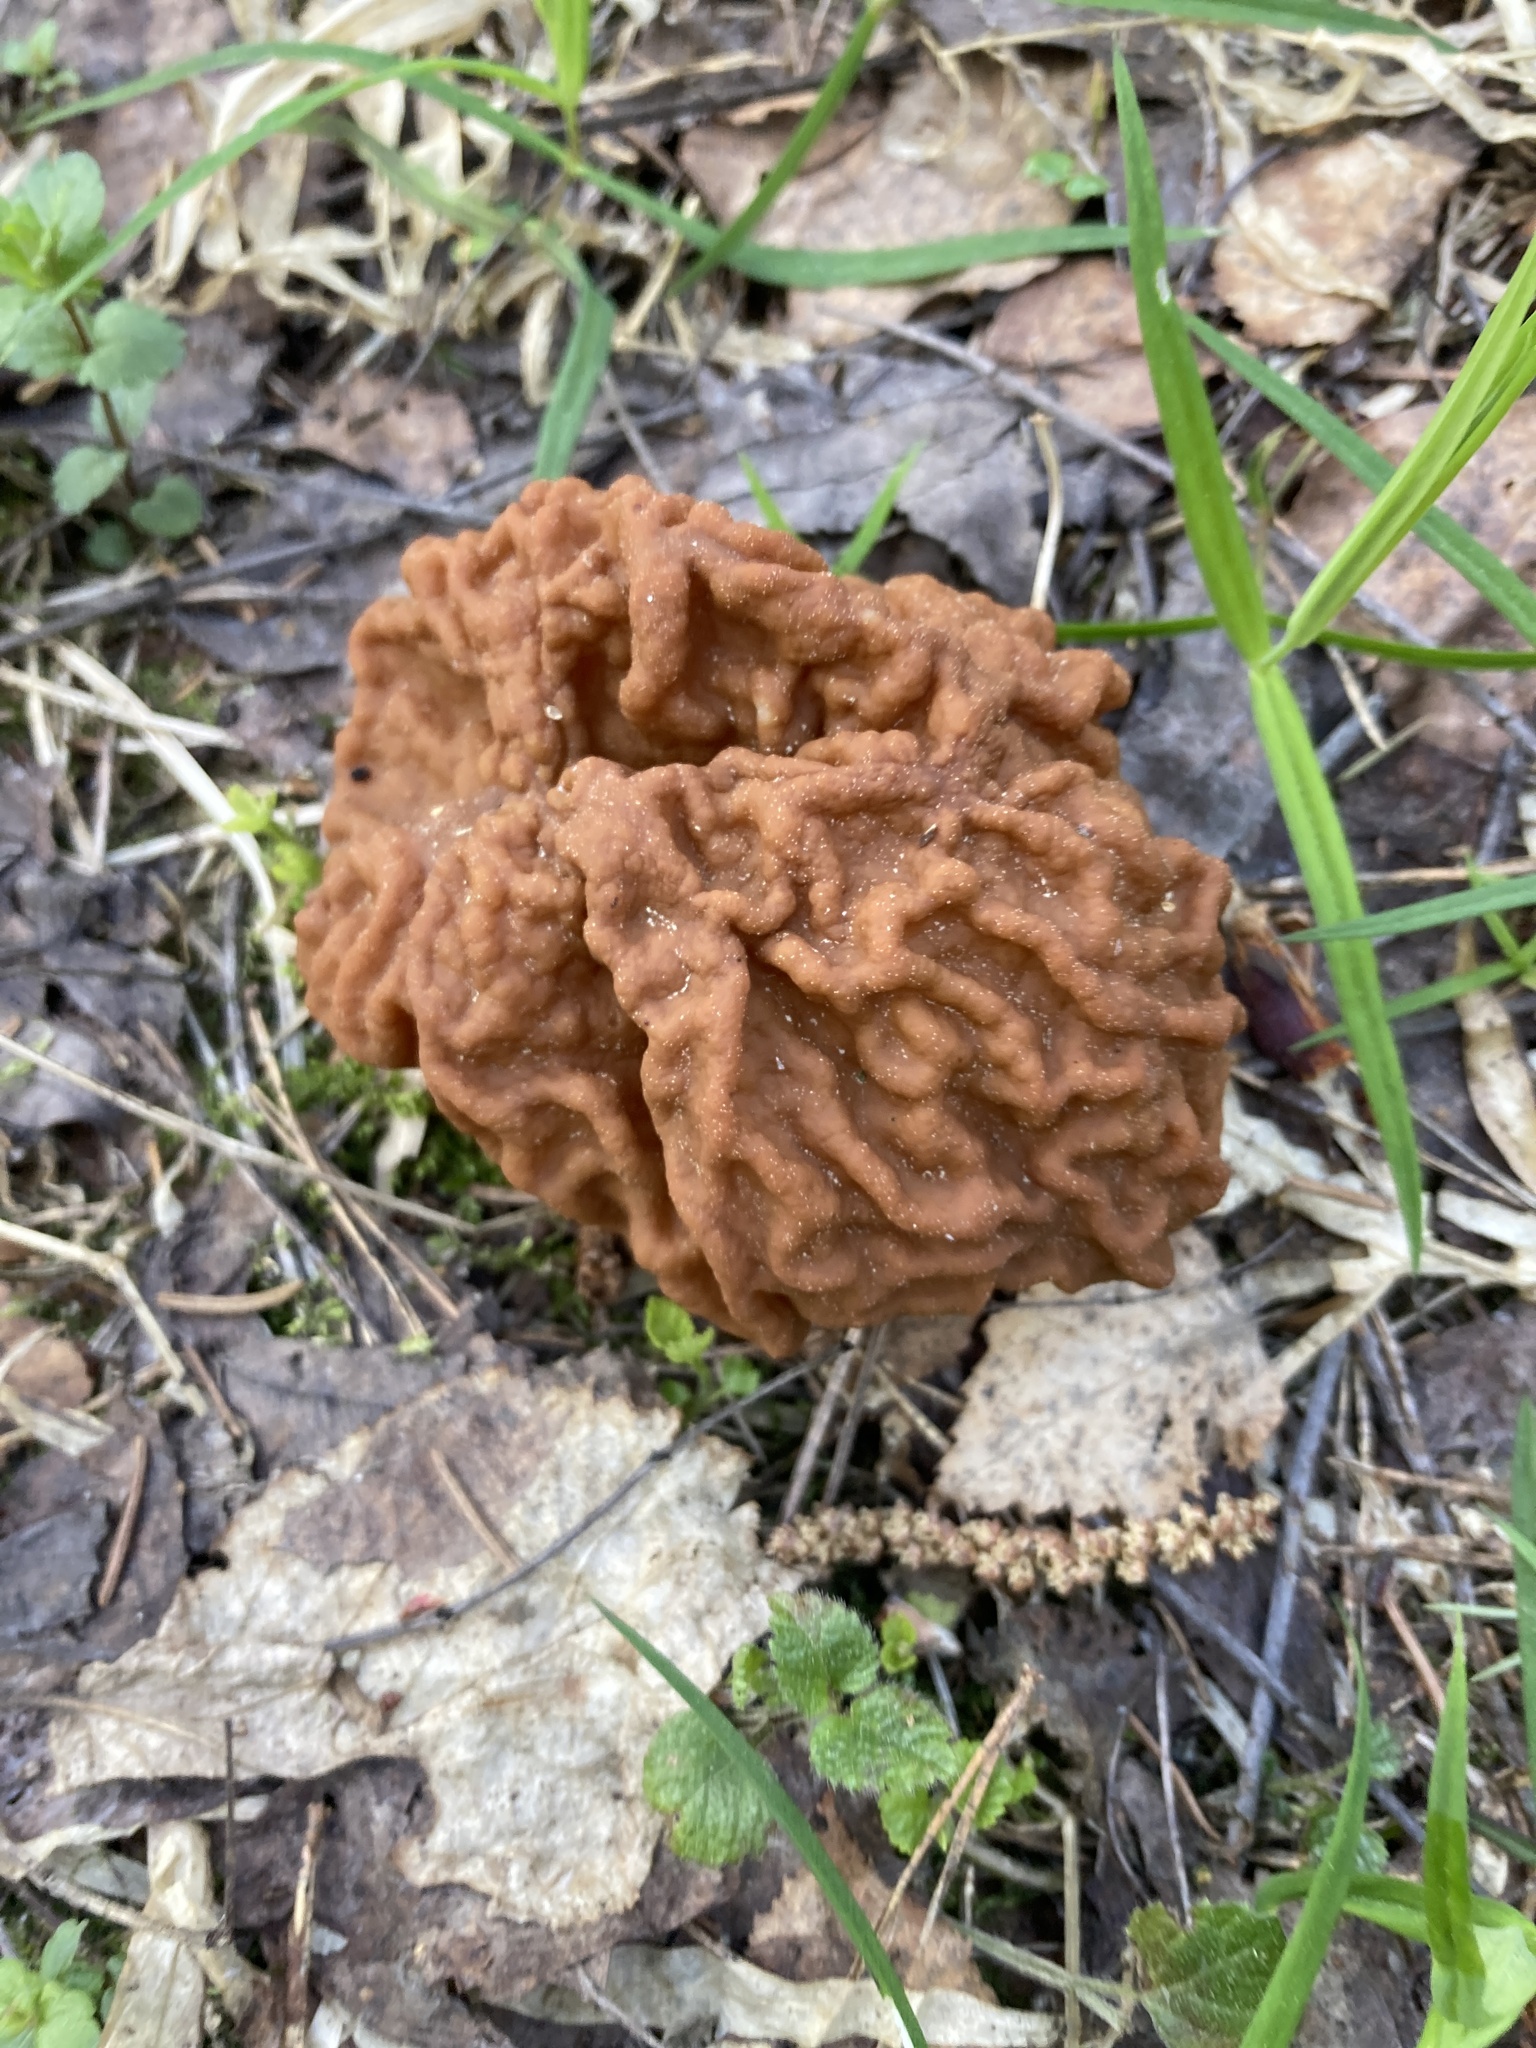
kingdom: Fungi
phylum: Ascomycota
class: Pezizomycetes
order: Pezizales
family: Discinaceae
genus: Gyromitra
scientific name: Gyromitra gigas
